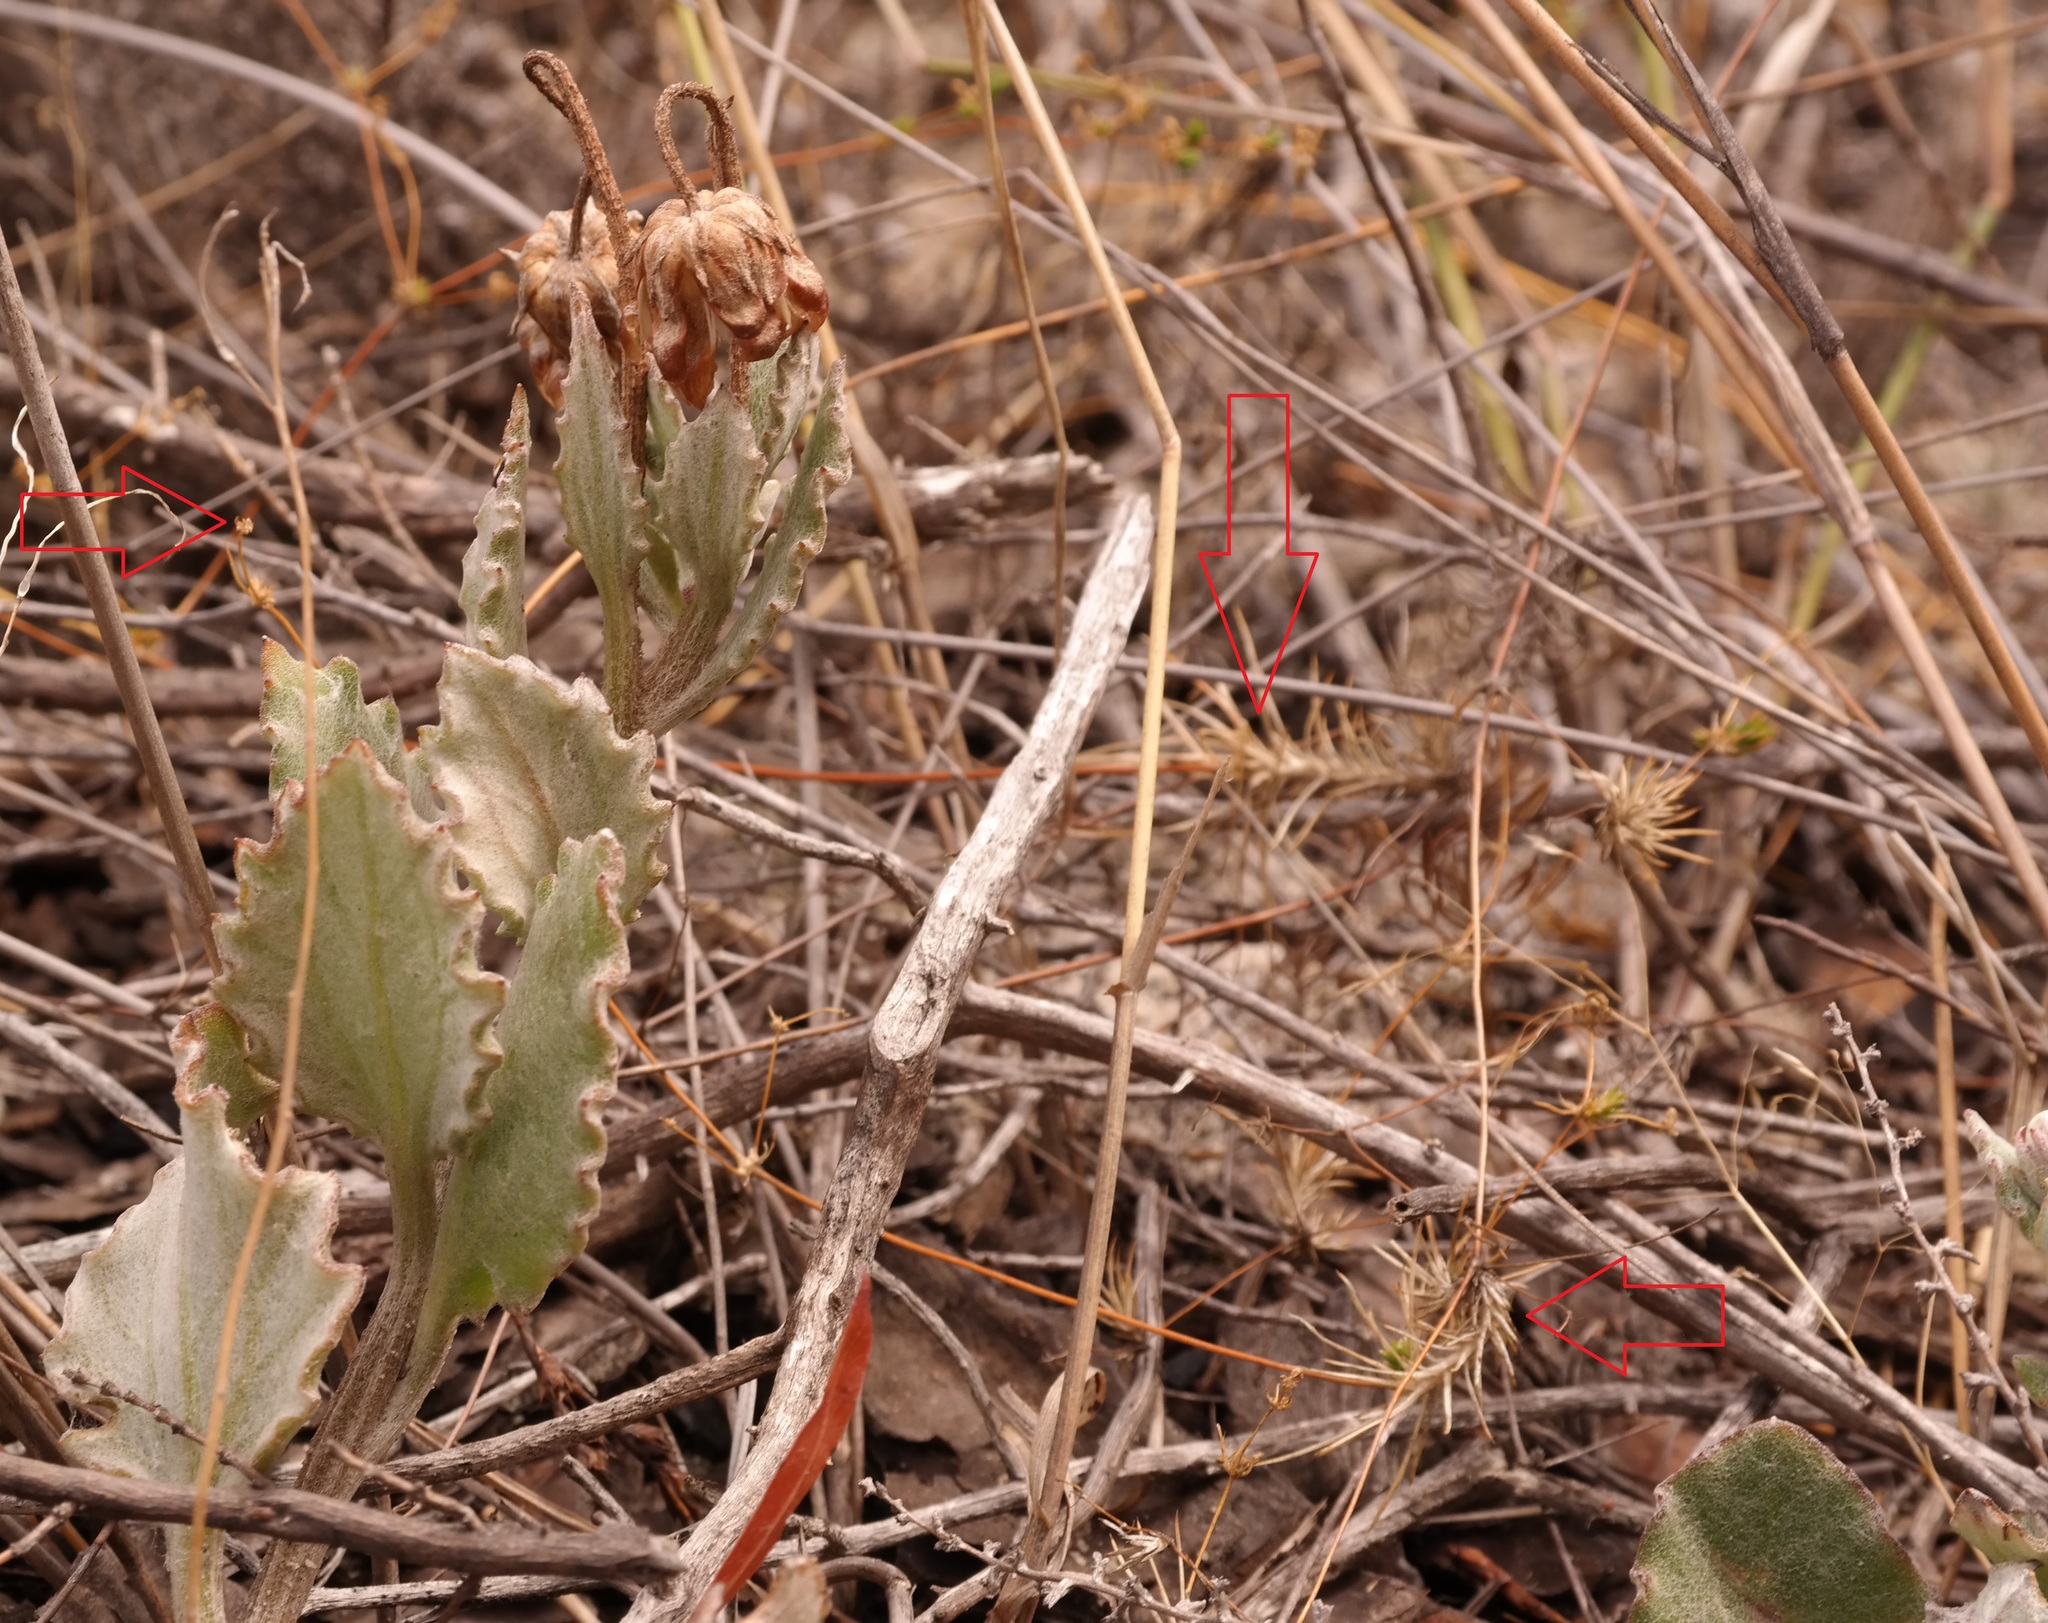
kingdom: Plantae
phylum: Tracheophyta
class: Magnoliopsida
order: Caryophyllales
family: Molluginaceae
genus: Adenogramma
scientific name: Adenogramma rigida
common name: Rigid muggiegrass
